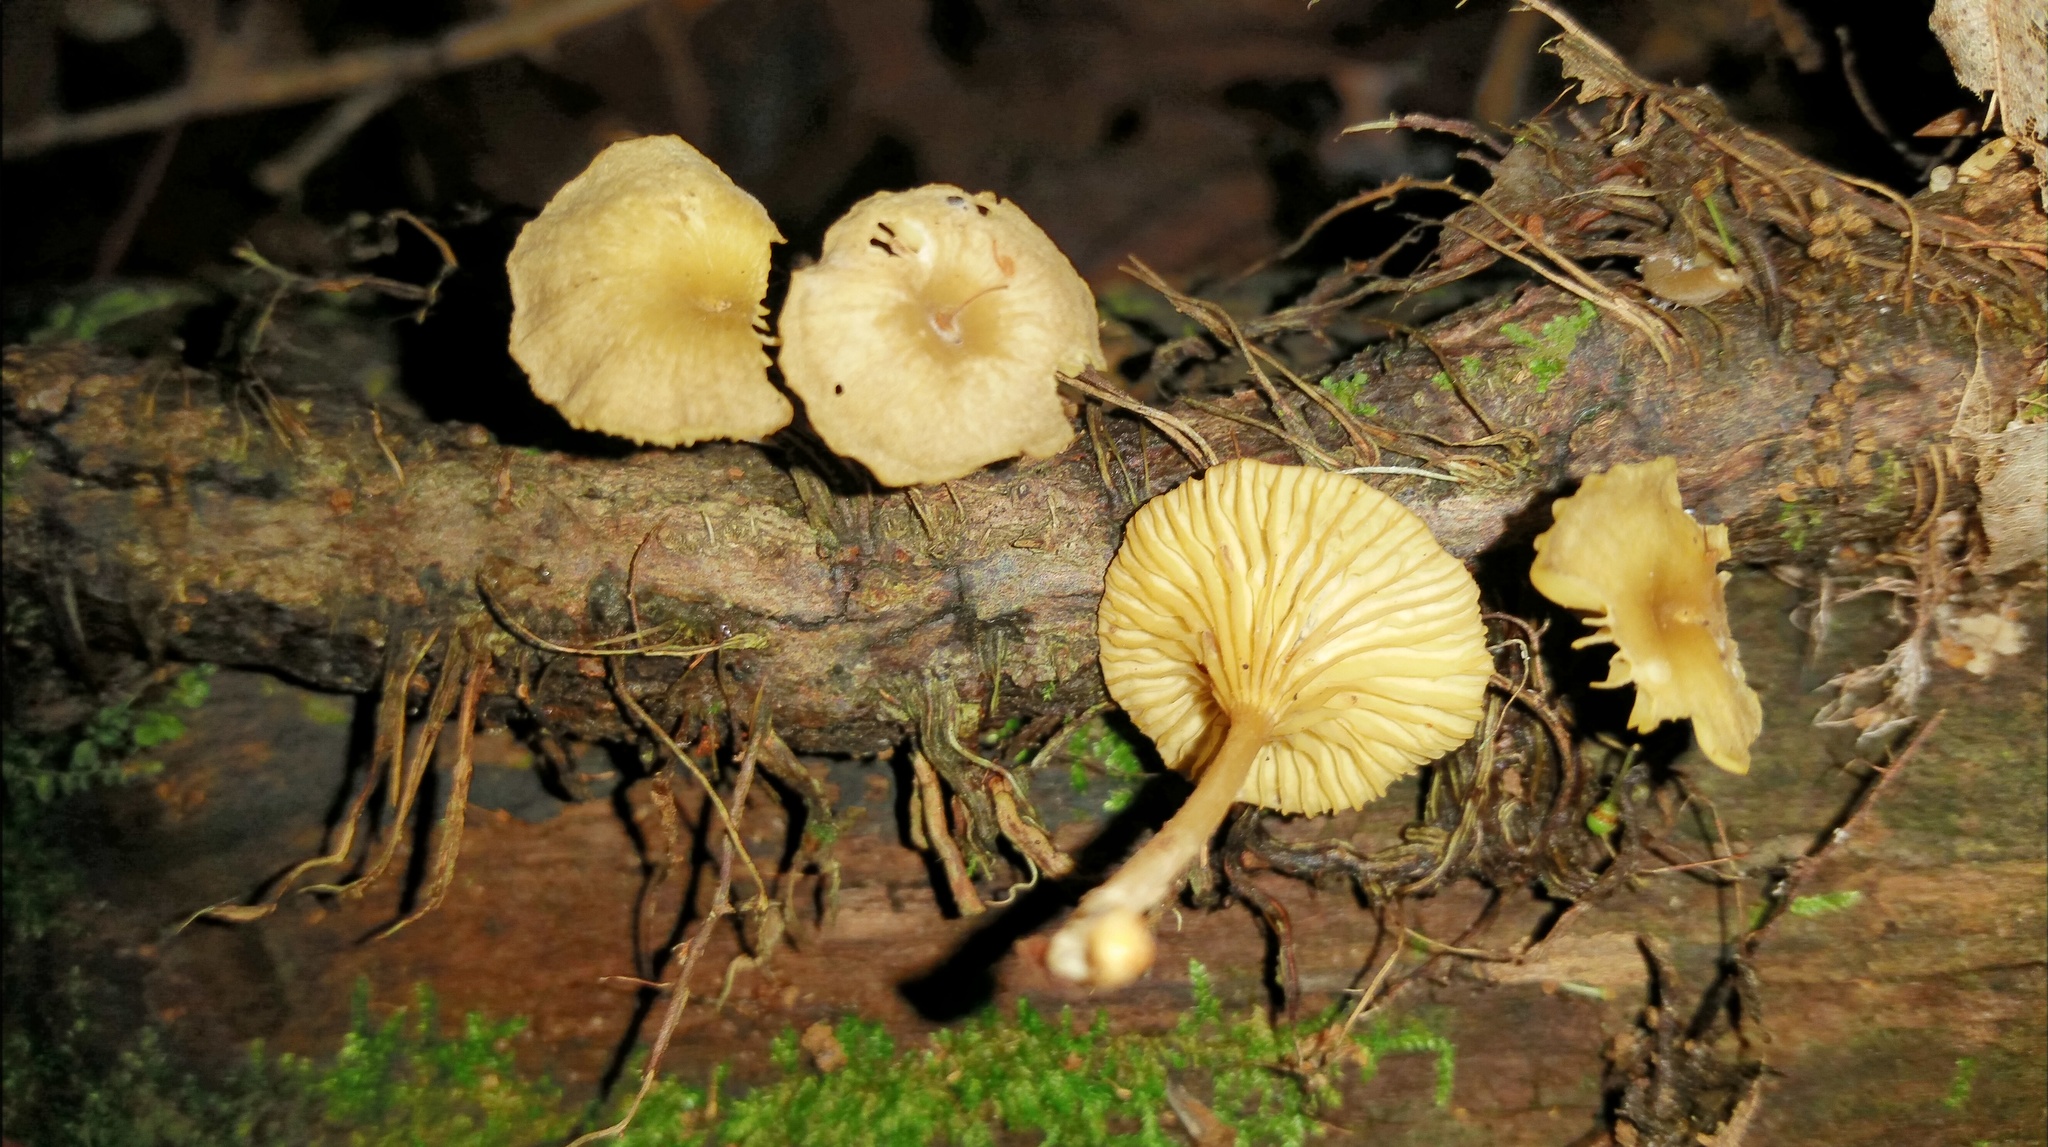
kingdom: Fungi
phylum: Basidiomycota
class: Agaricomycetes
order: Agaricales
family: Marasmiaceae
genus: Gerronema
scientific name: Gerronema strombodes
